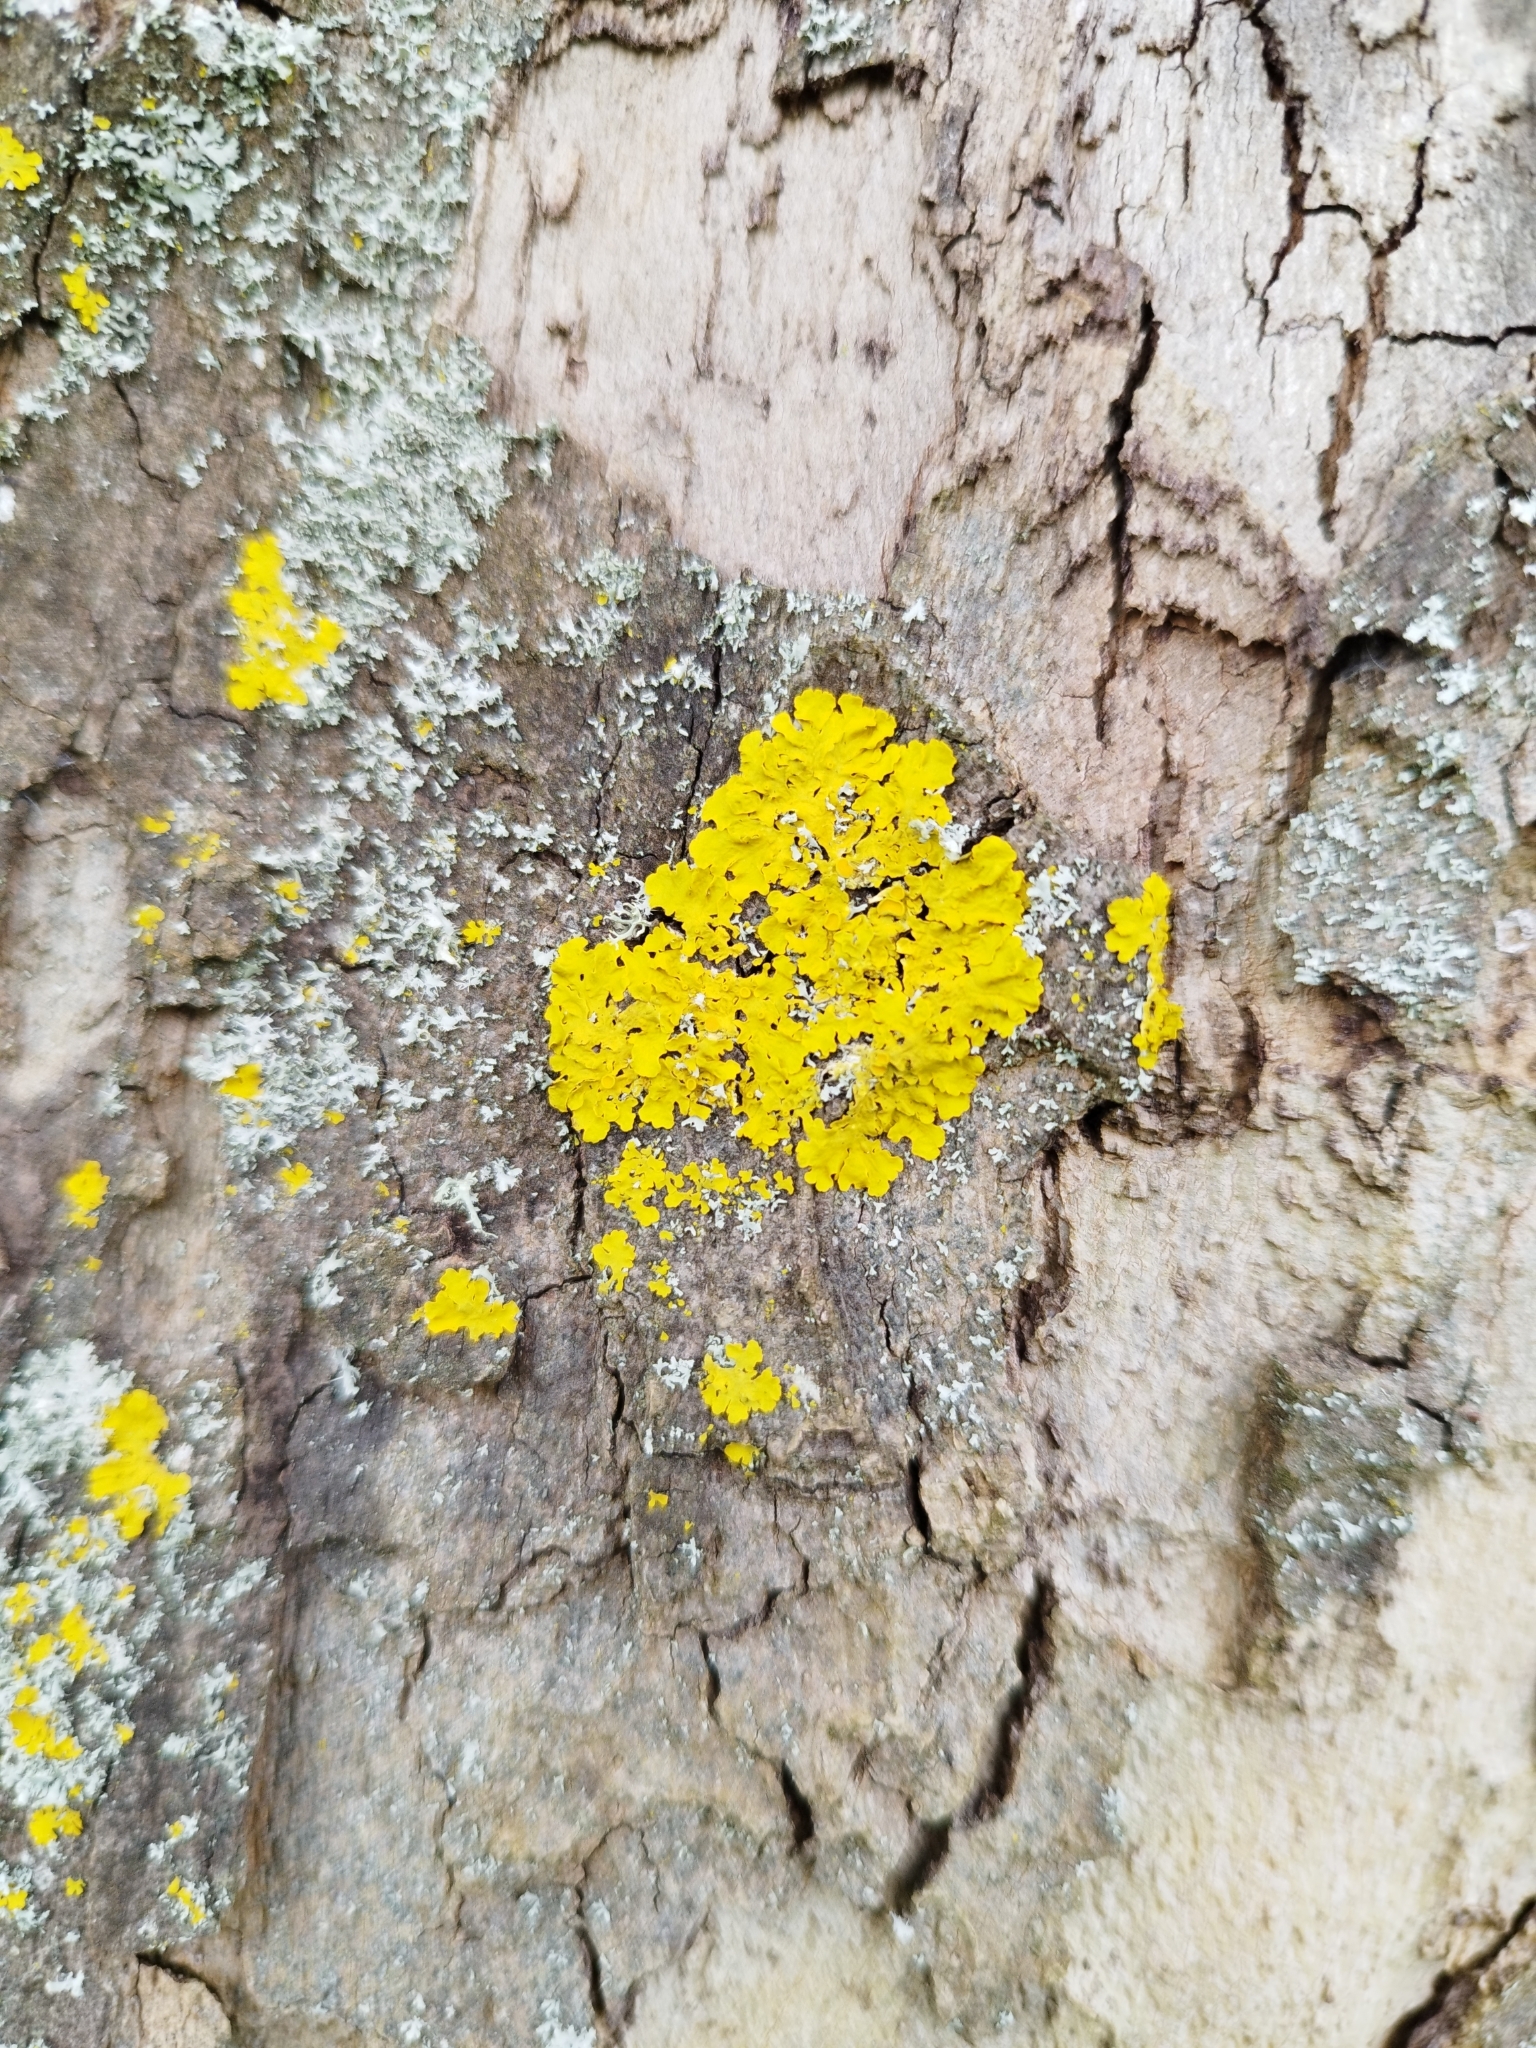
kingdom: Fungi
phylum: Ascomycota
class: Lecanoromycetes
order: Teloschistales
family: Teloschistaceae
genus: Xanthoria
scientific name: Xanthoria parietina
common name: Common orange lichen
